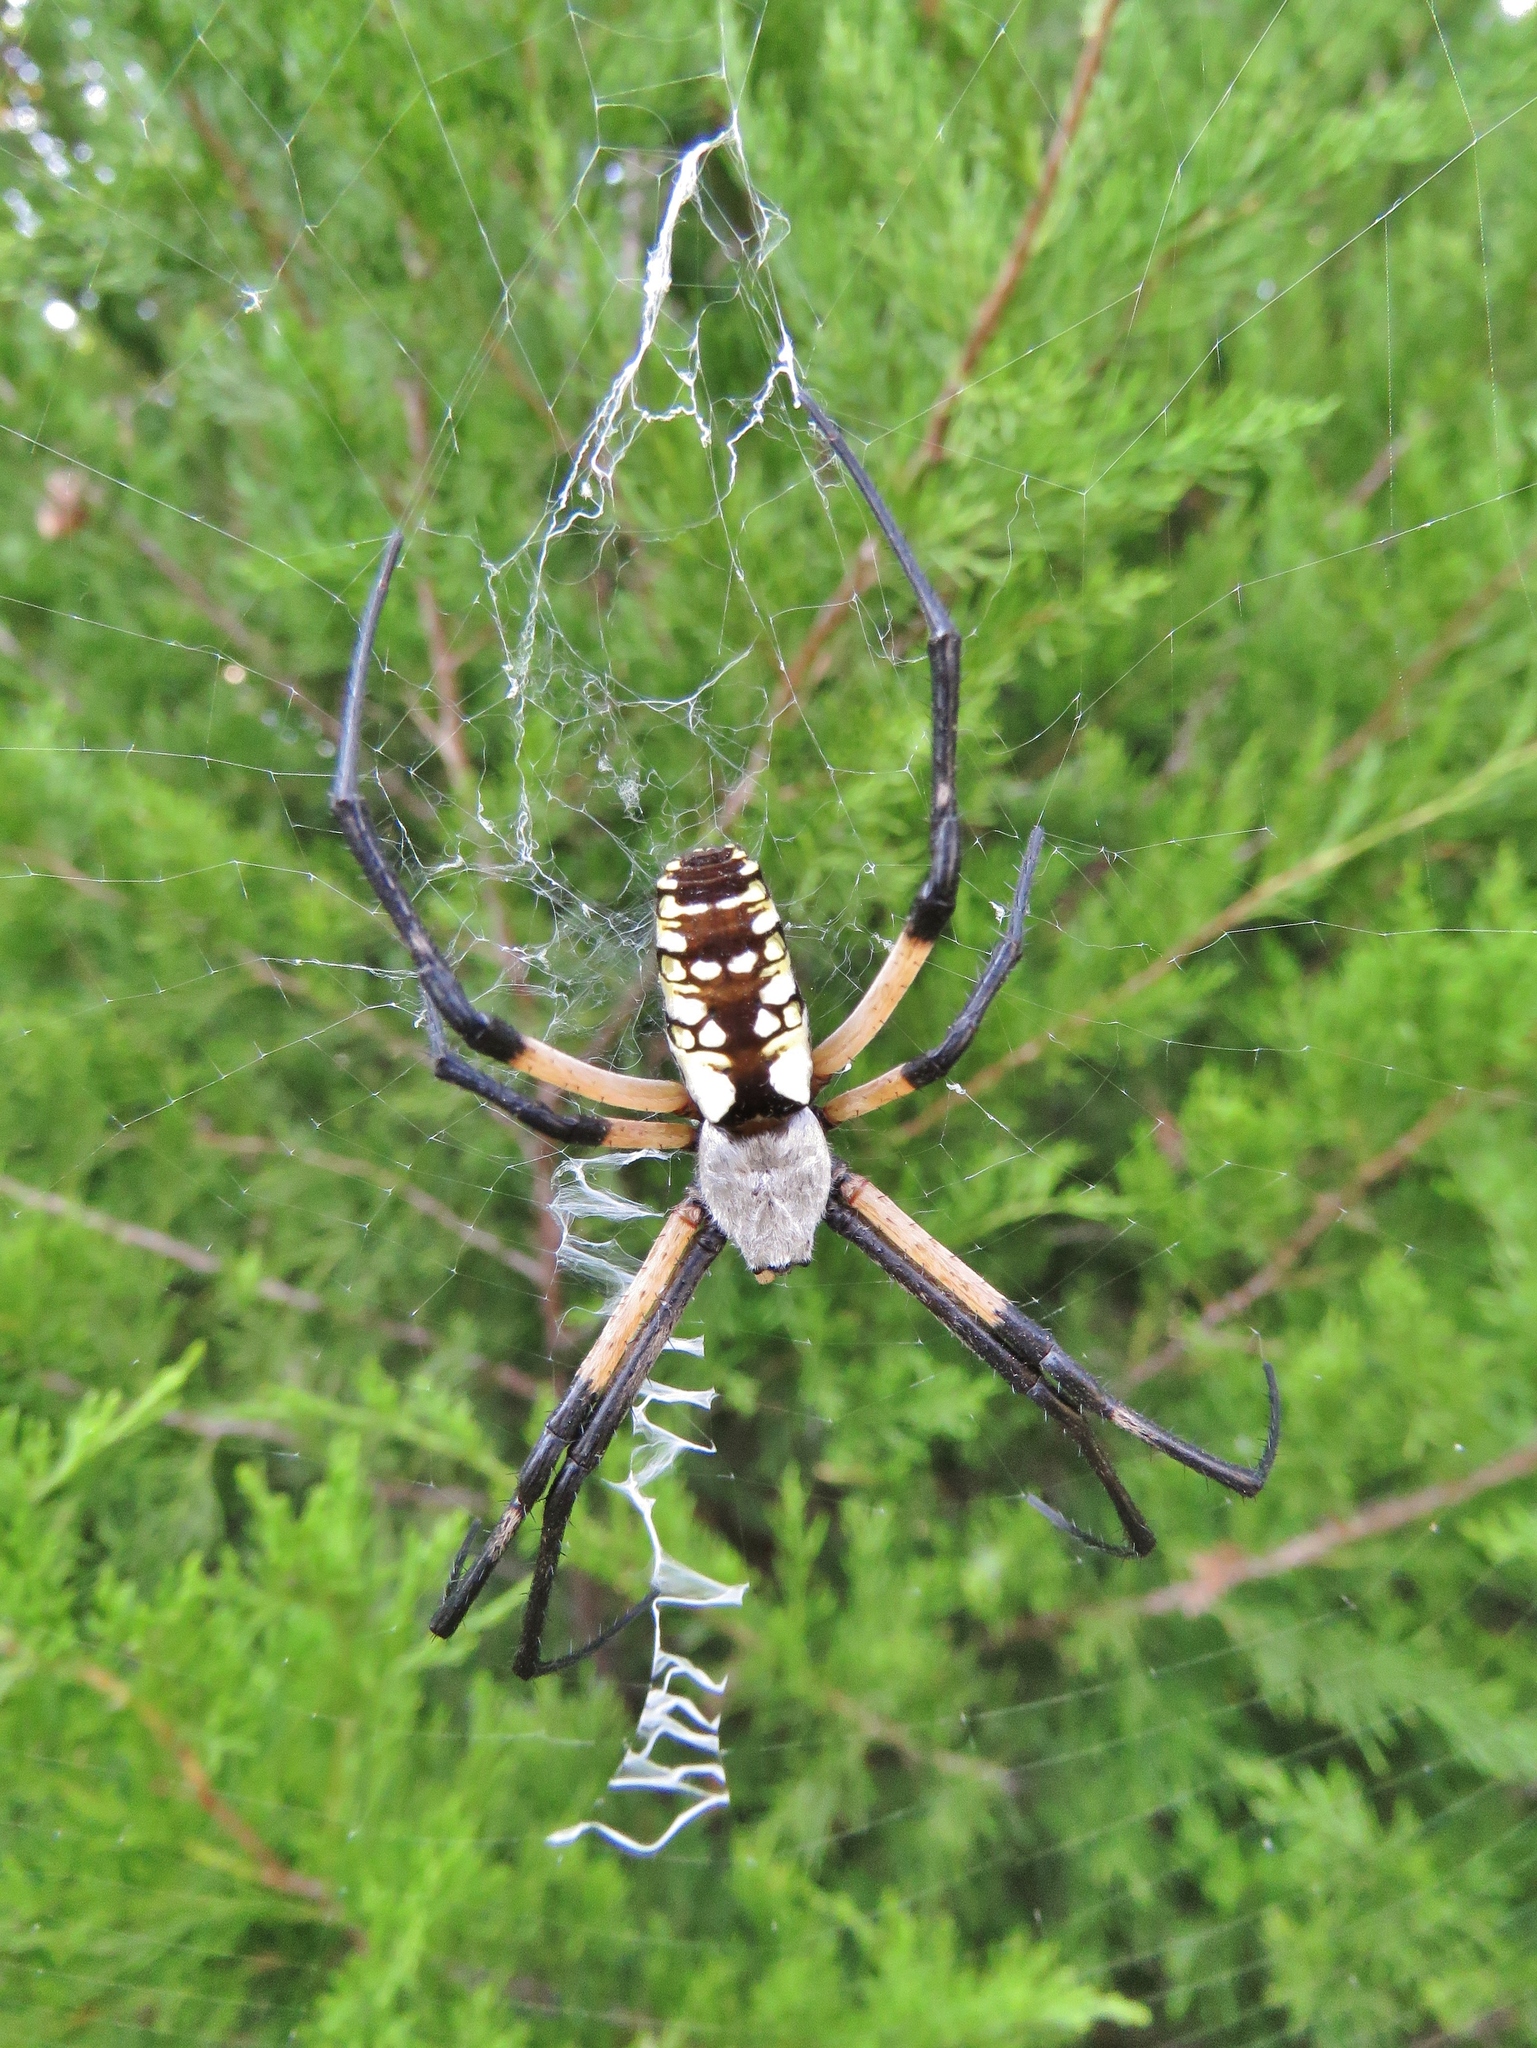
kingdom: Animalia
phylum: Arthropoda
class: Arachnida
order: Araneae
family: Araneidae
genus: Argiope
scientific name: Argiope aurantia
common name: Orb weavers
